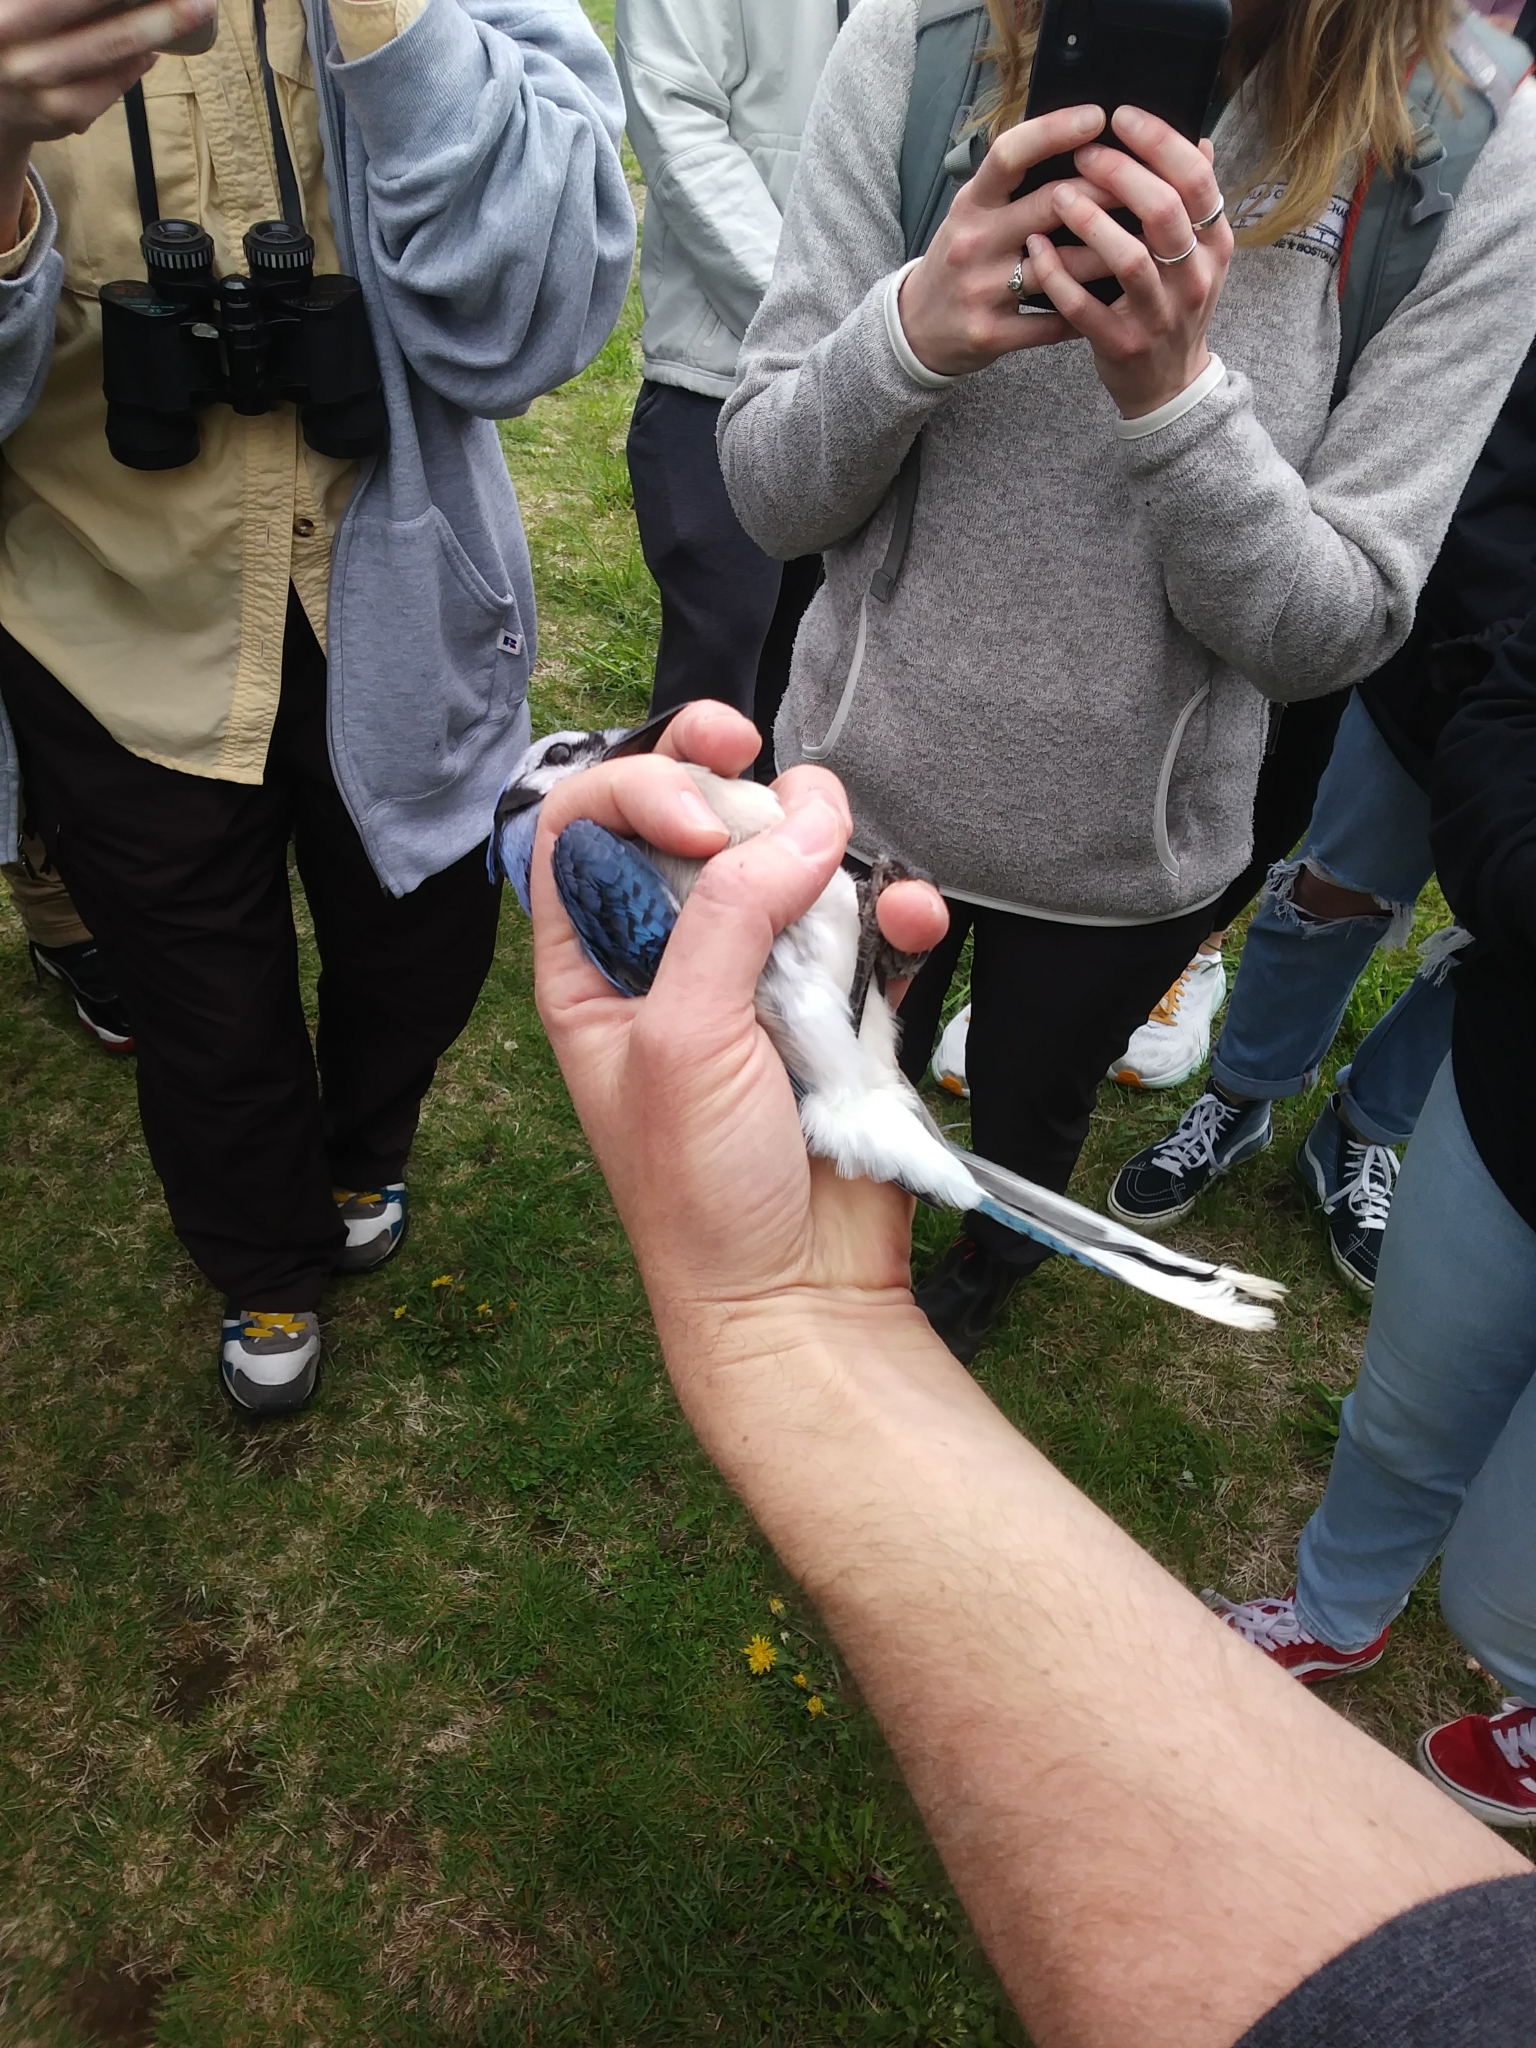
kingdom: Animalia
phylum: Chordata
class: Aves
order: Passeriformes
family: Corvidae
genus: Cyanocitta
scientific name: Cyanocitta cristata
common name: Blue jay
